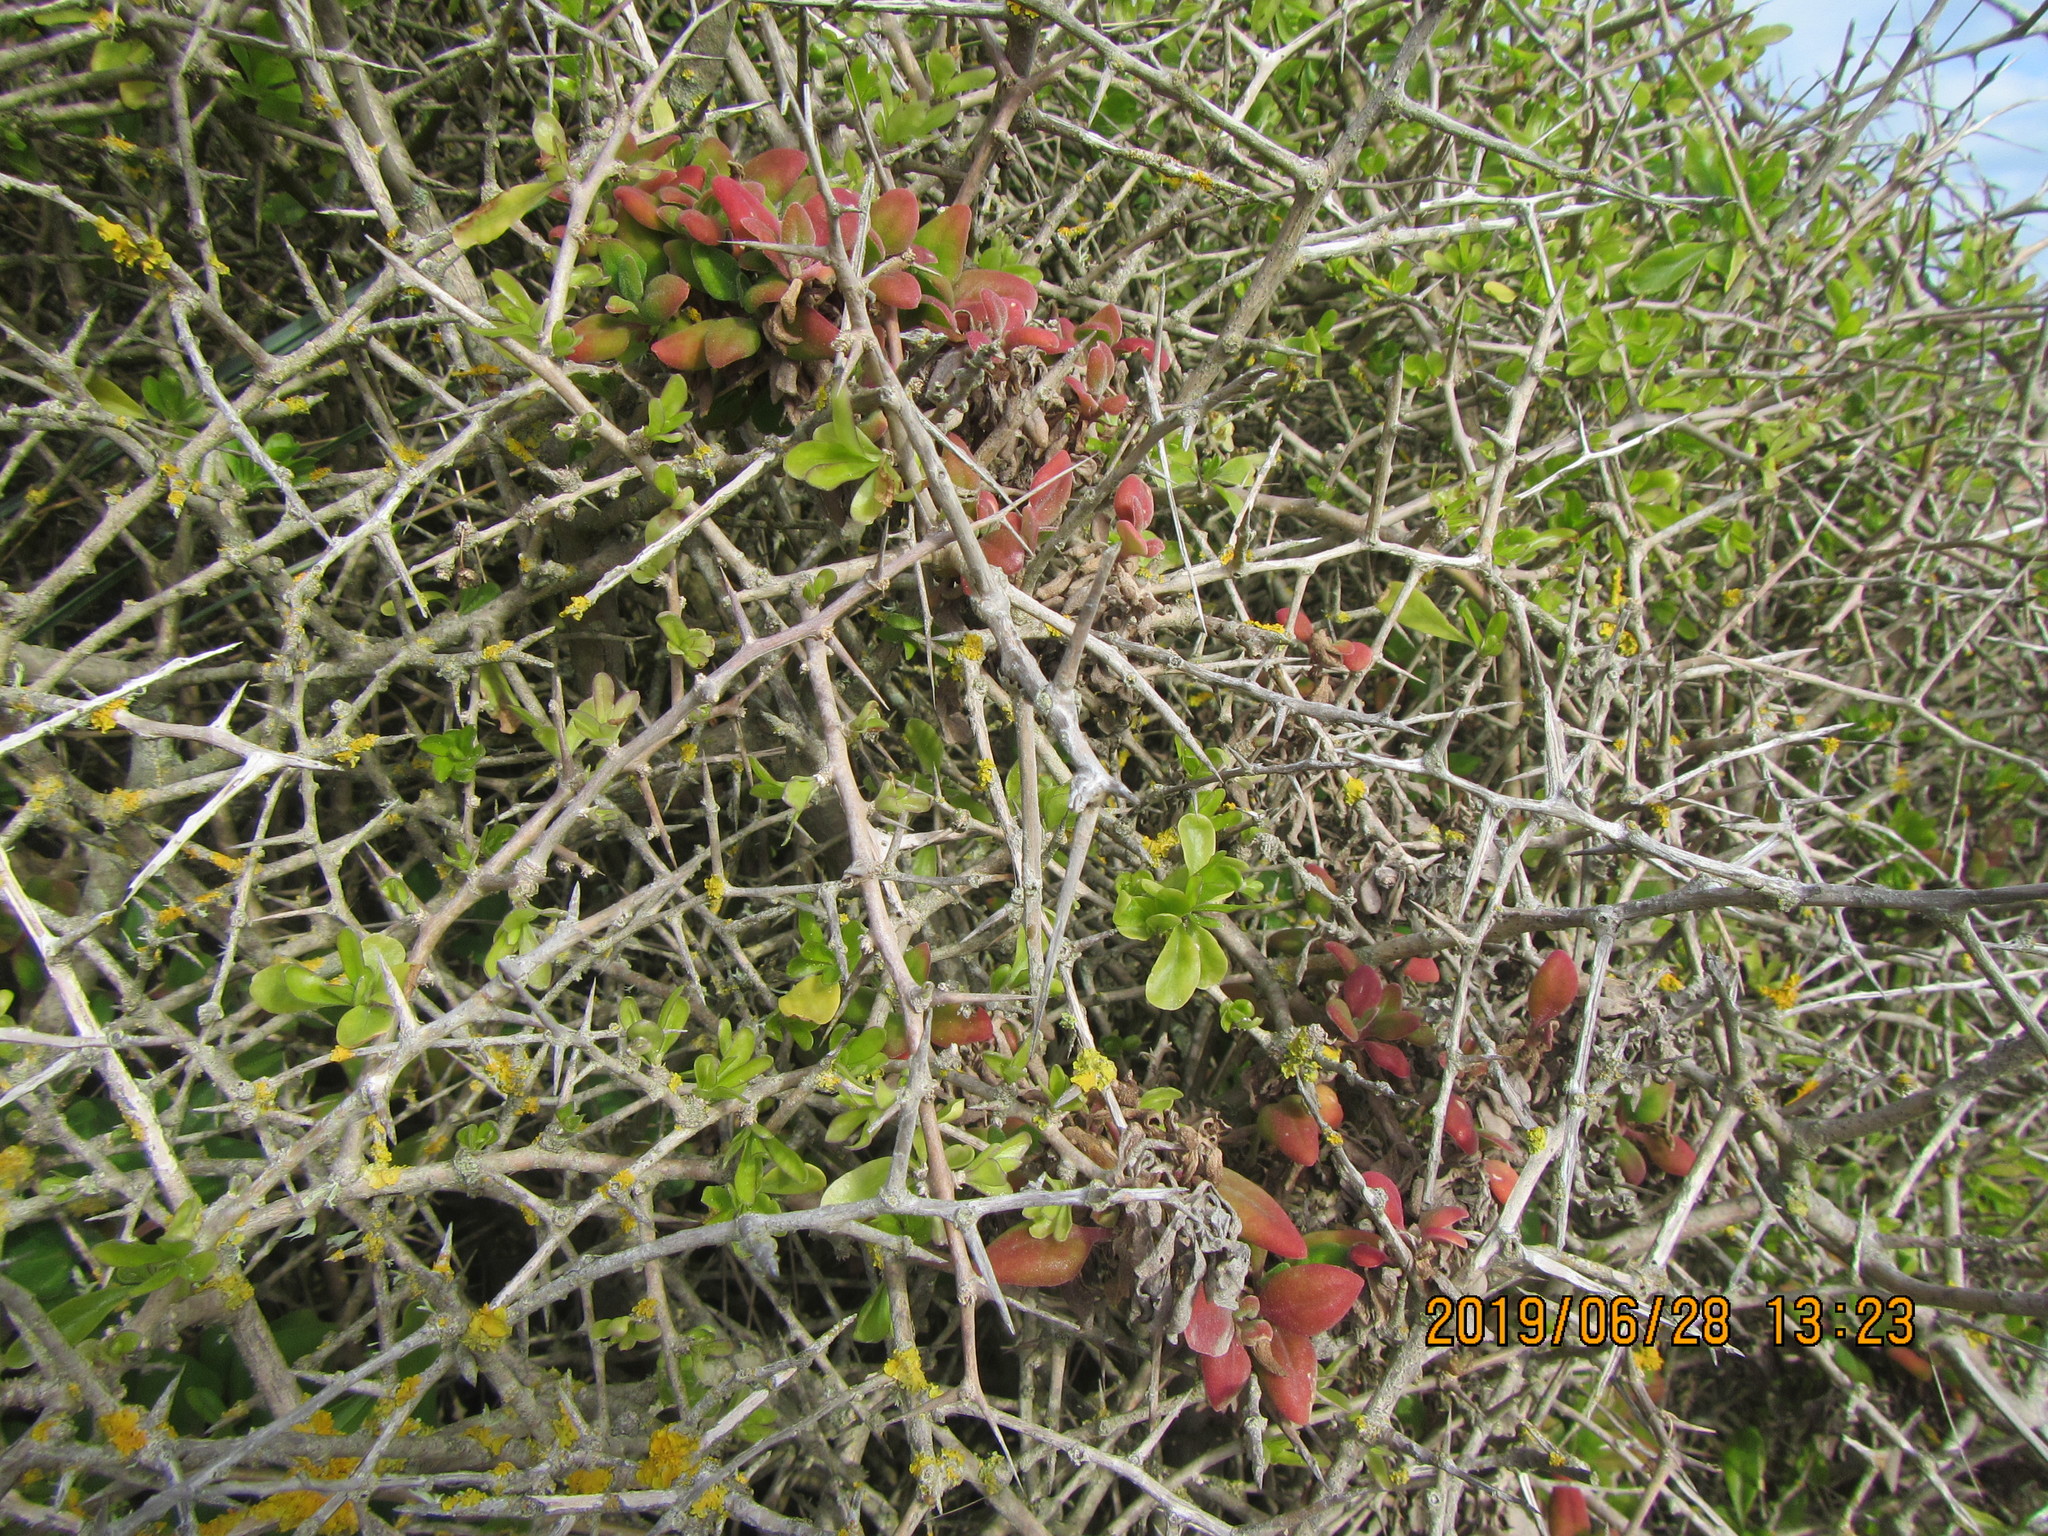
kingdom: Plantae
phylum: Tracheophyta
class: Magnoliopsida
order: Caryophyllales
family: Aizoaceae
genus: Tetragonia
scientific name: Tetragonia implexicoma
